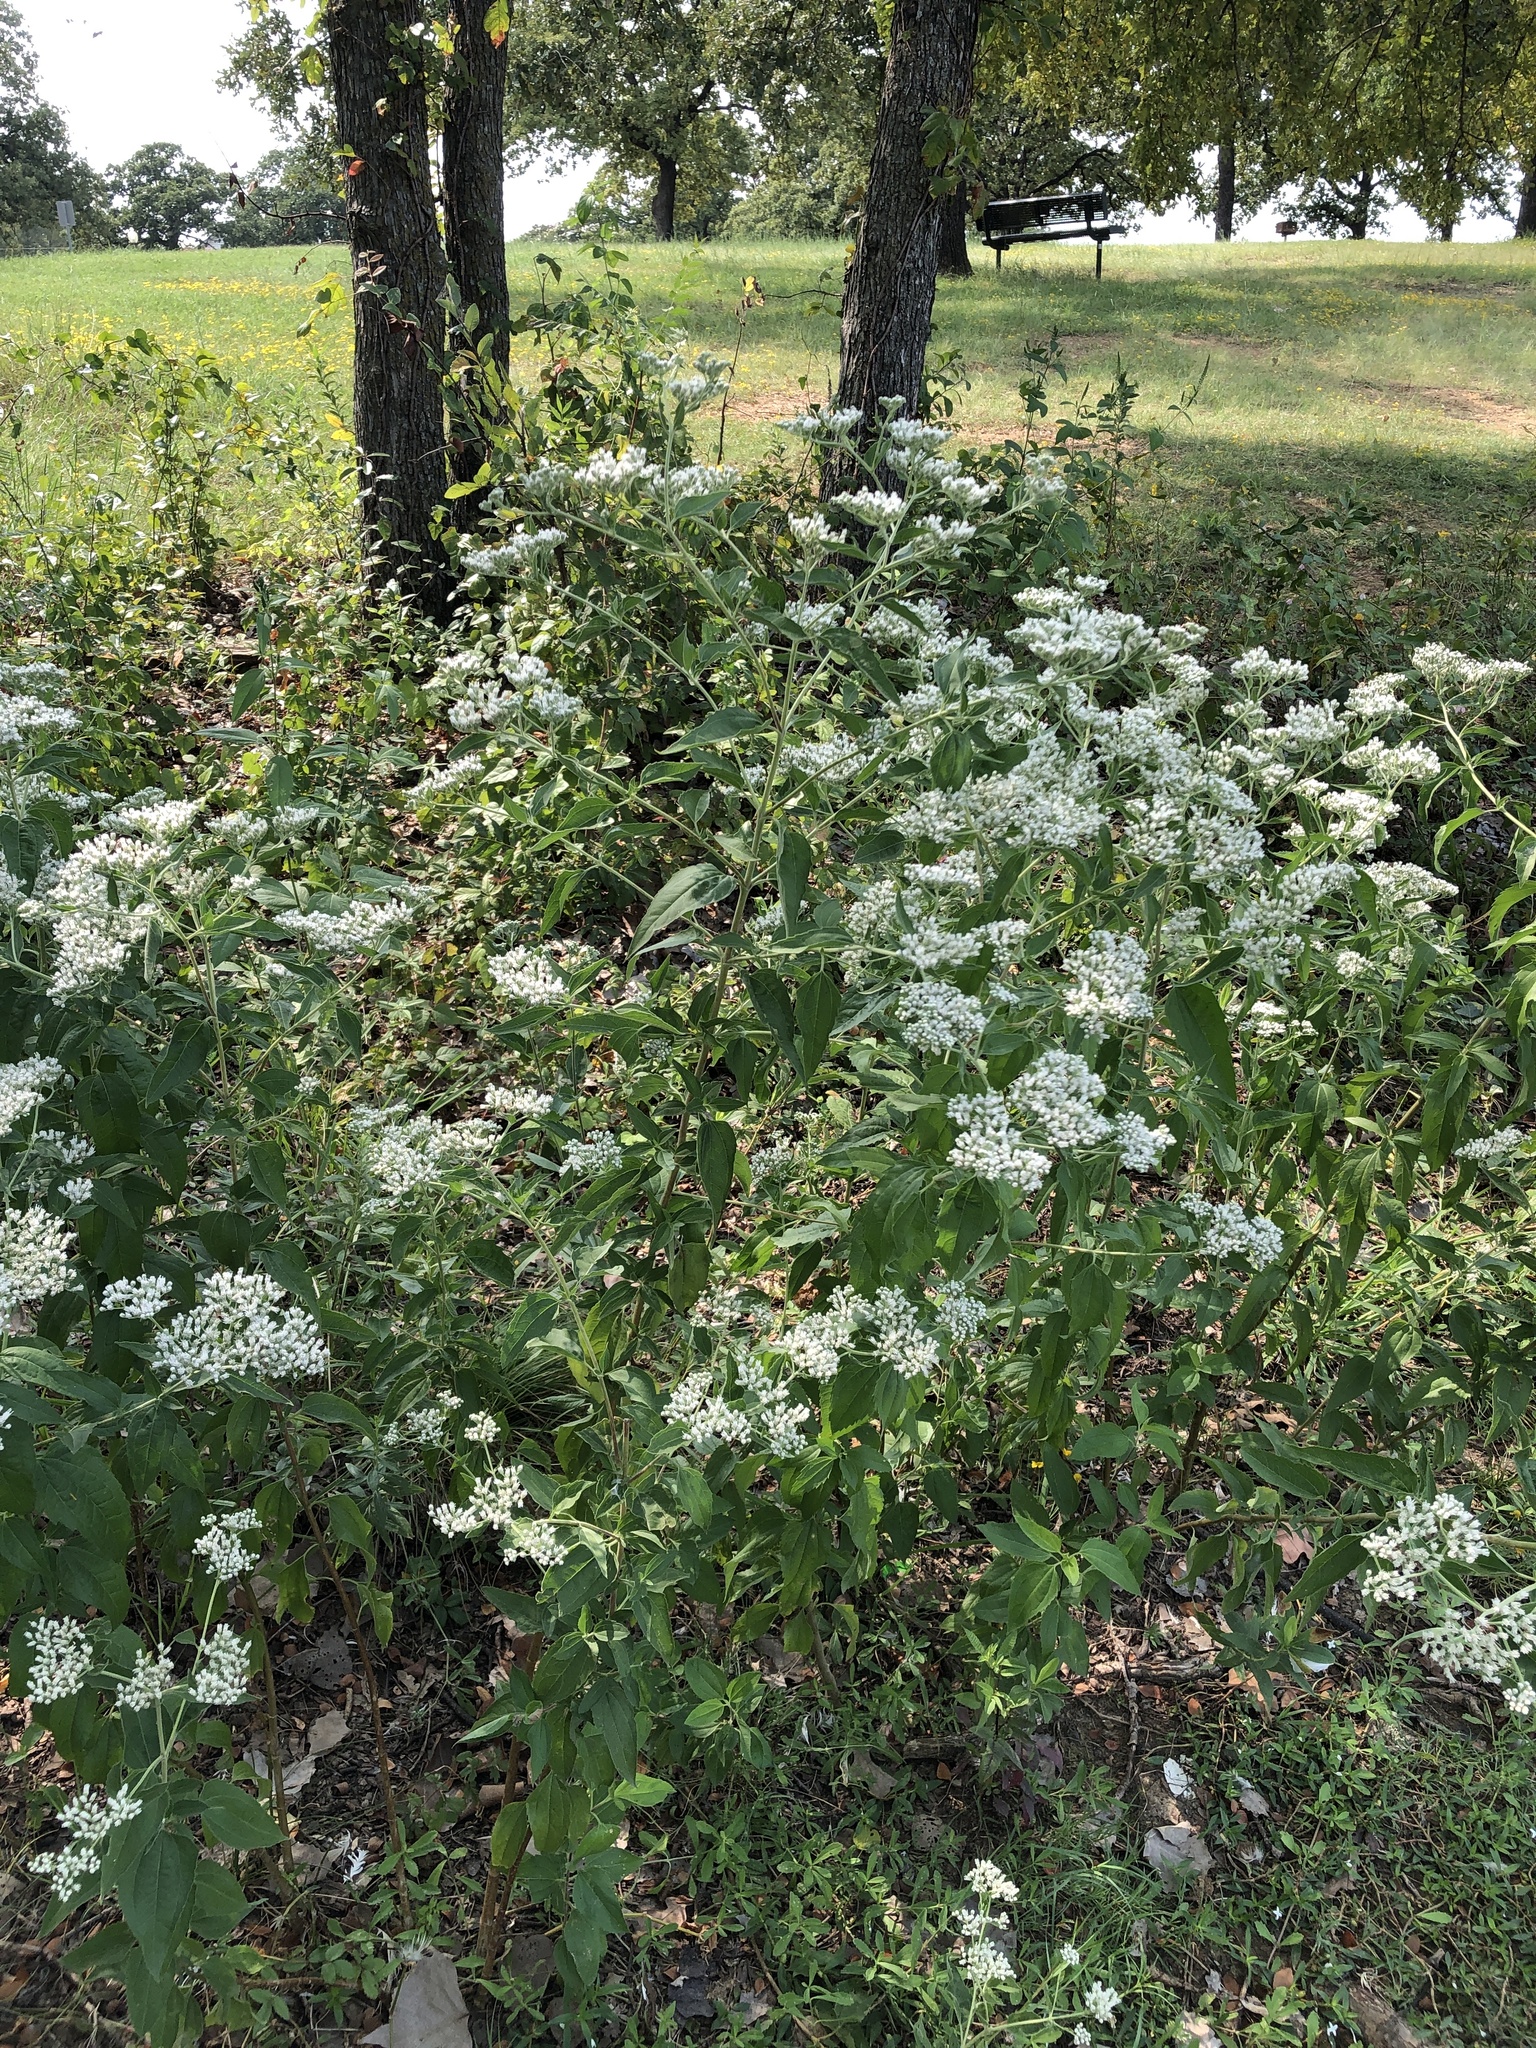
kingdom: Plantae
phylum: Tracheophyta
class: Magnoliopsida
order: Asterales
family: Asteraceae
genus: Eupatorium
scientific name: Eupatorium serotinum
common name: Late boneset
